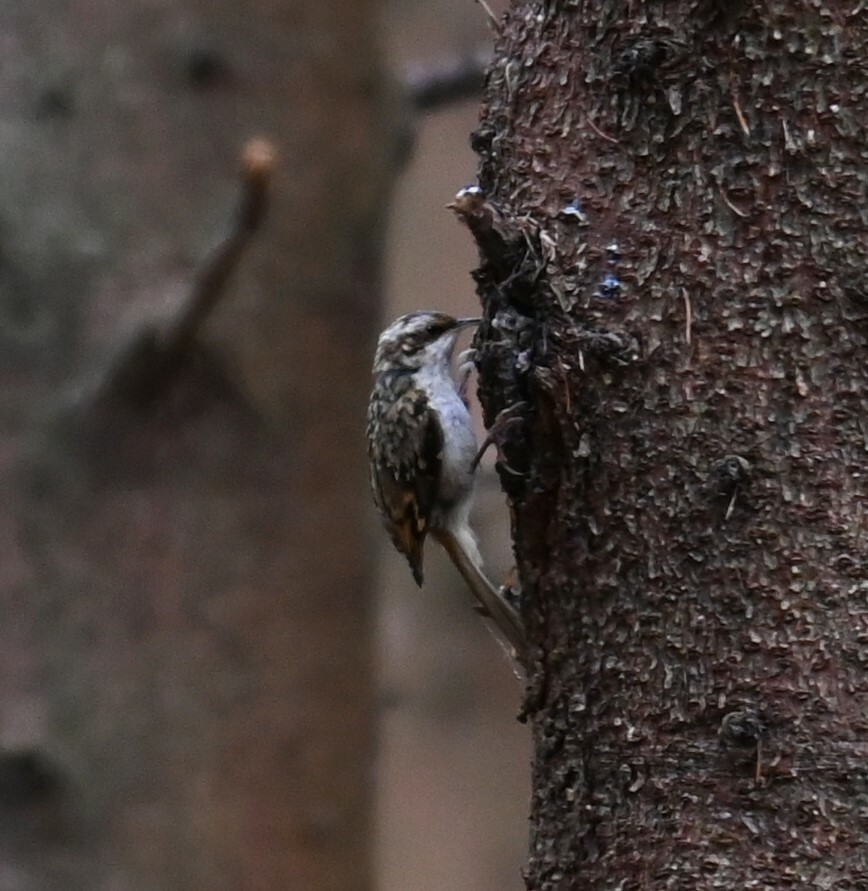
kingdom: Animalia
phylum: Chordata
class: Aves
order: Passeriformes
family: Certhiidae
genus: Certhia
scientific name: Certhia familiaris
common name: Eurasian treecreeper
